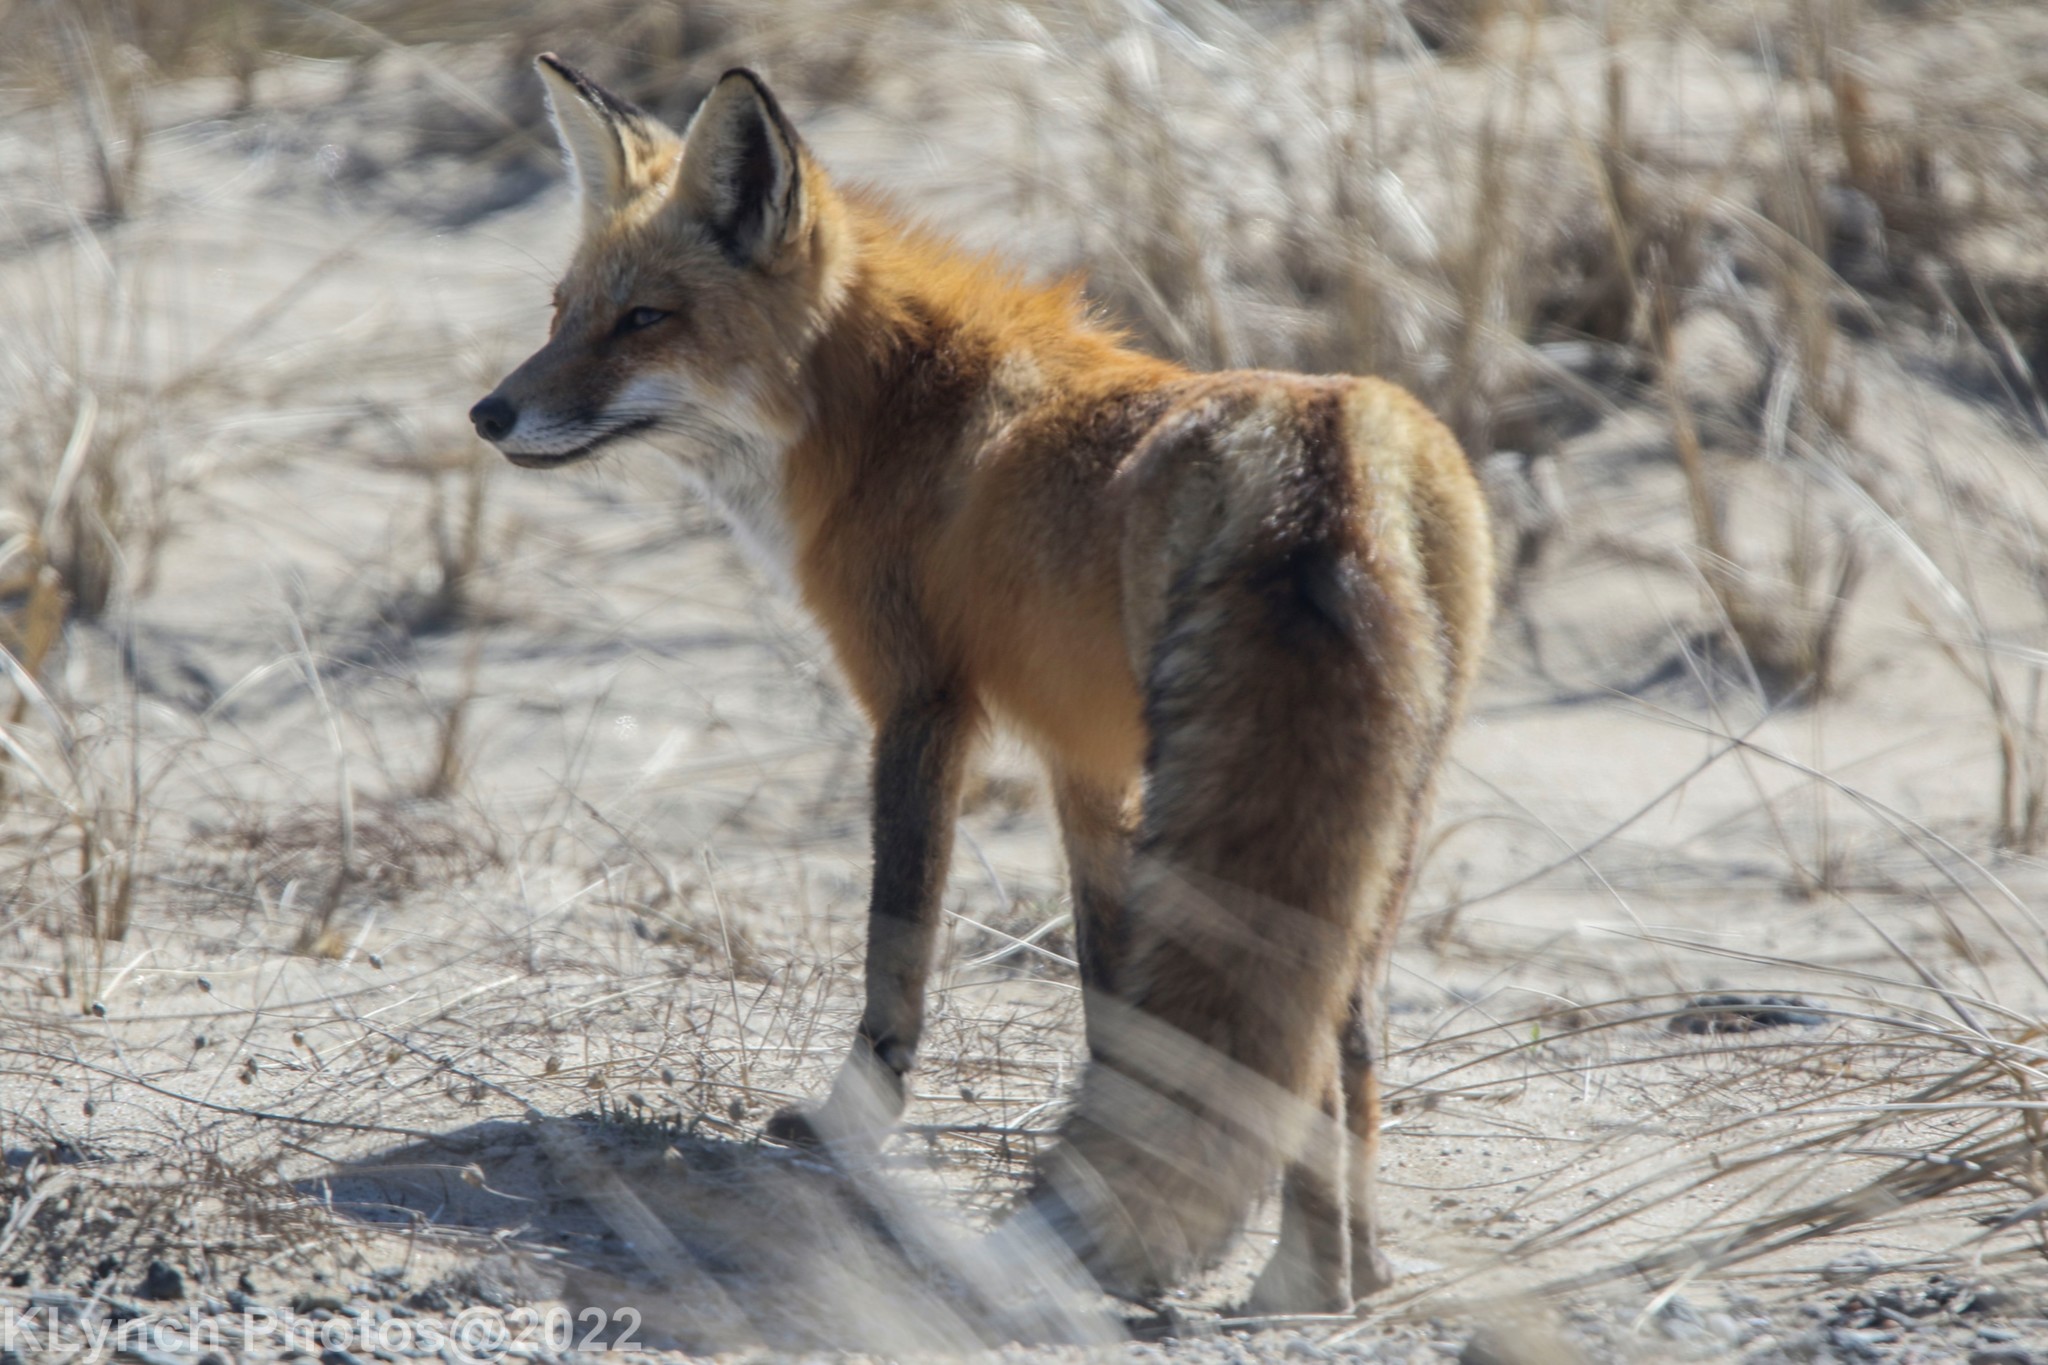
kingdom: Animalia
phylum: Chordata
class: Mammalia
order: Carnivora
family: Canidae
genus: Vulpes
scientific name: Vulpes vulpes
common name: Red fox
